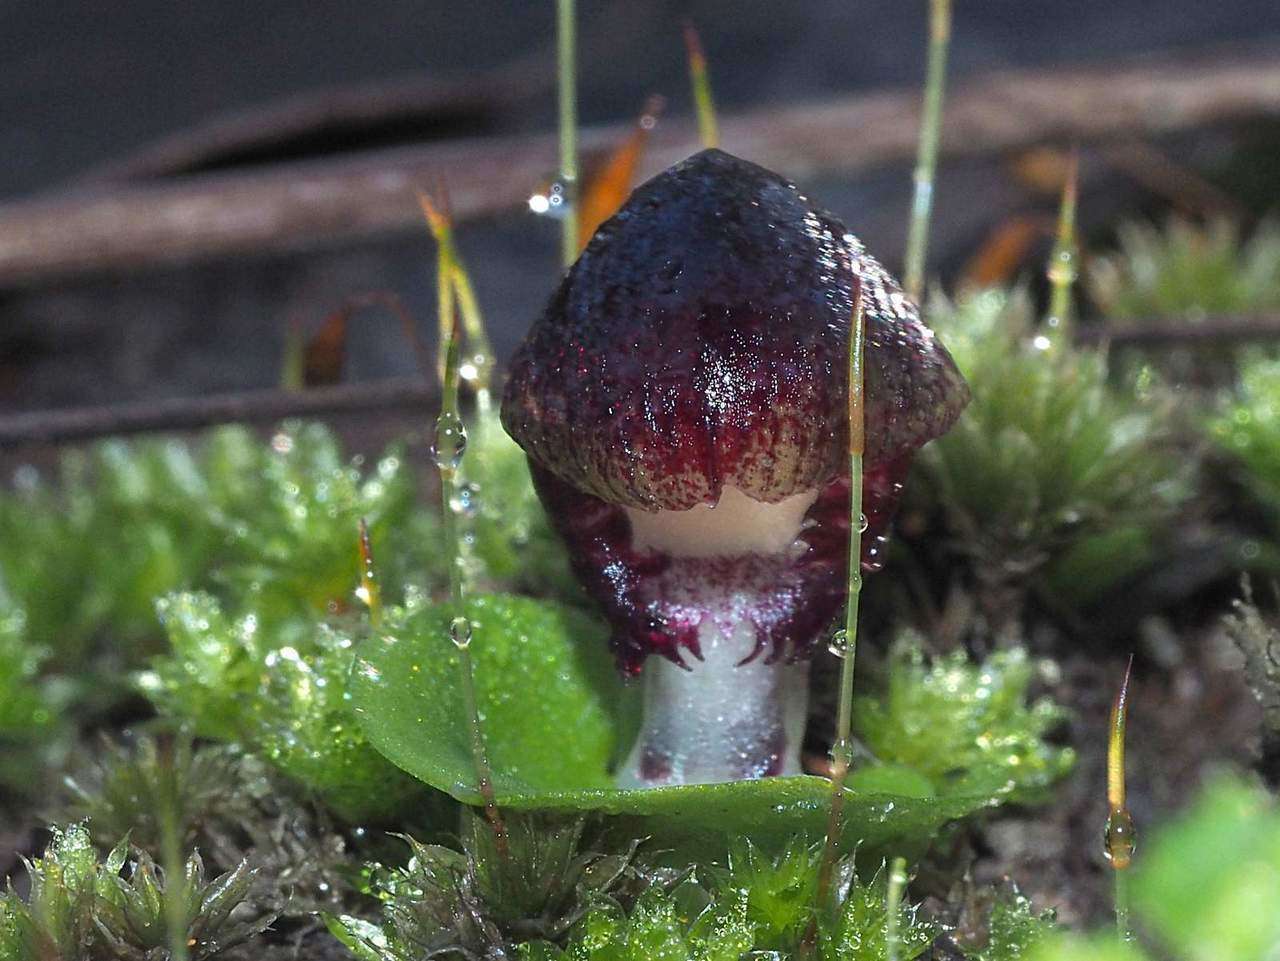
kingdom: Plantae
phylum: Tracheophyta
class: Liliopsida
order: Asparagales
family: Orchidaceae
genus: Corybas
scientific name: Corybas diemenicus
